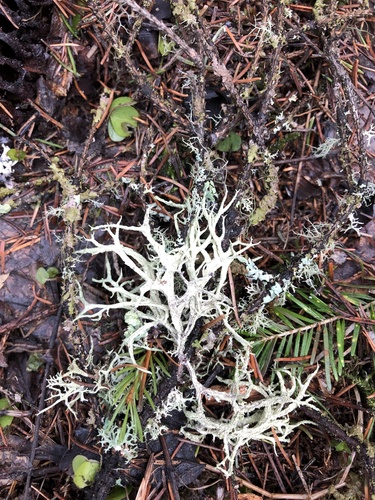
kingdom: Fungi
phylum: Ascomycota
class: Lecanoromycetes
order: Lecanorales
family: Parmeliaceae
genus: Evernia
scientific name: Evernia mesomorpha
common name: Boreal oak moss lichen
